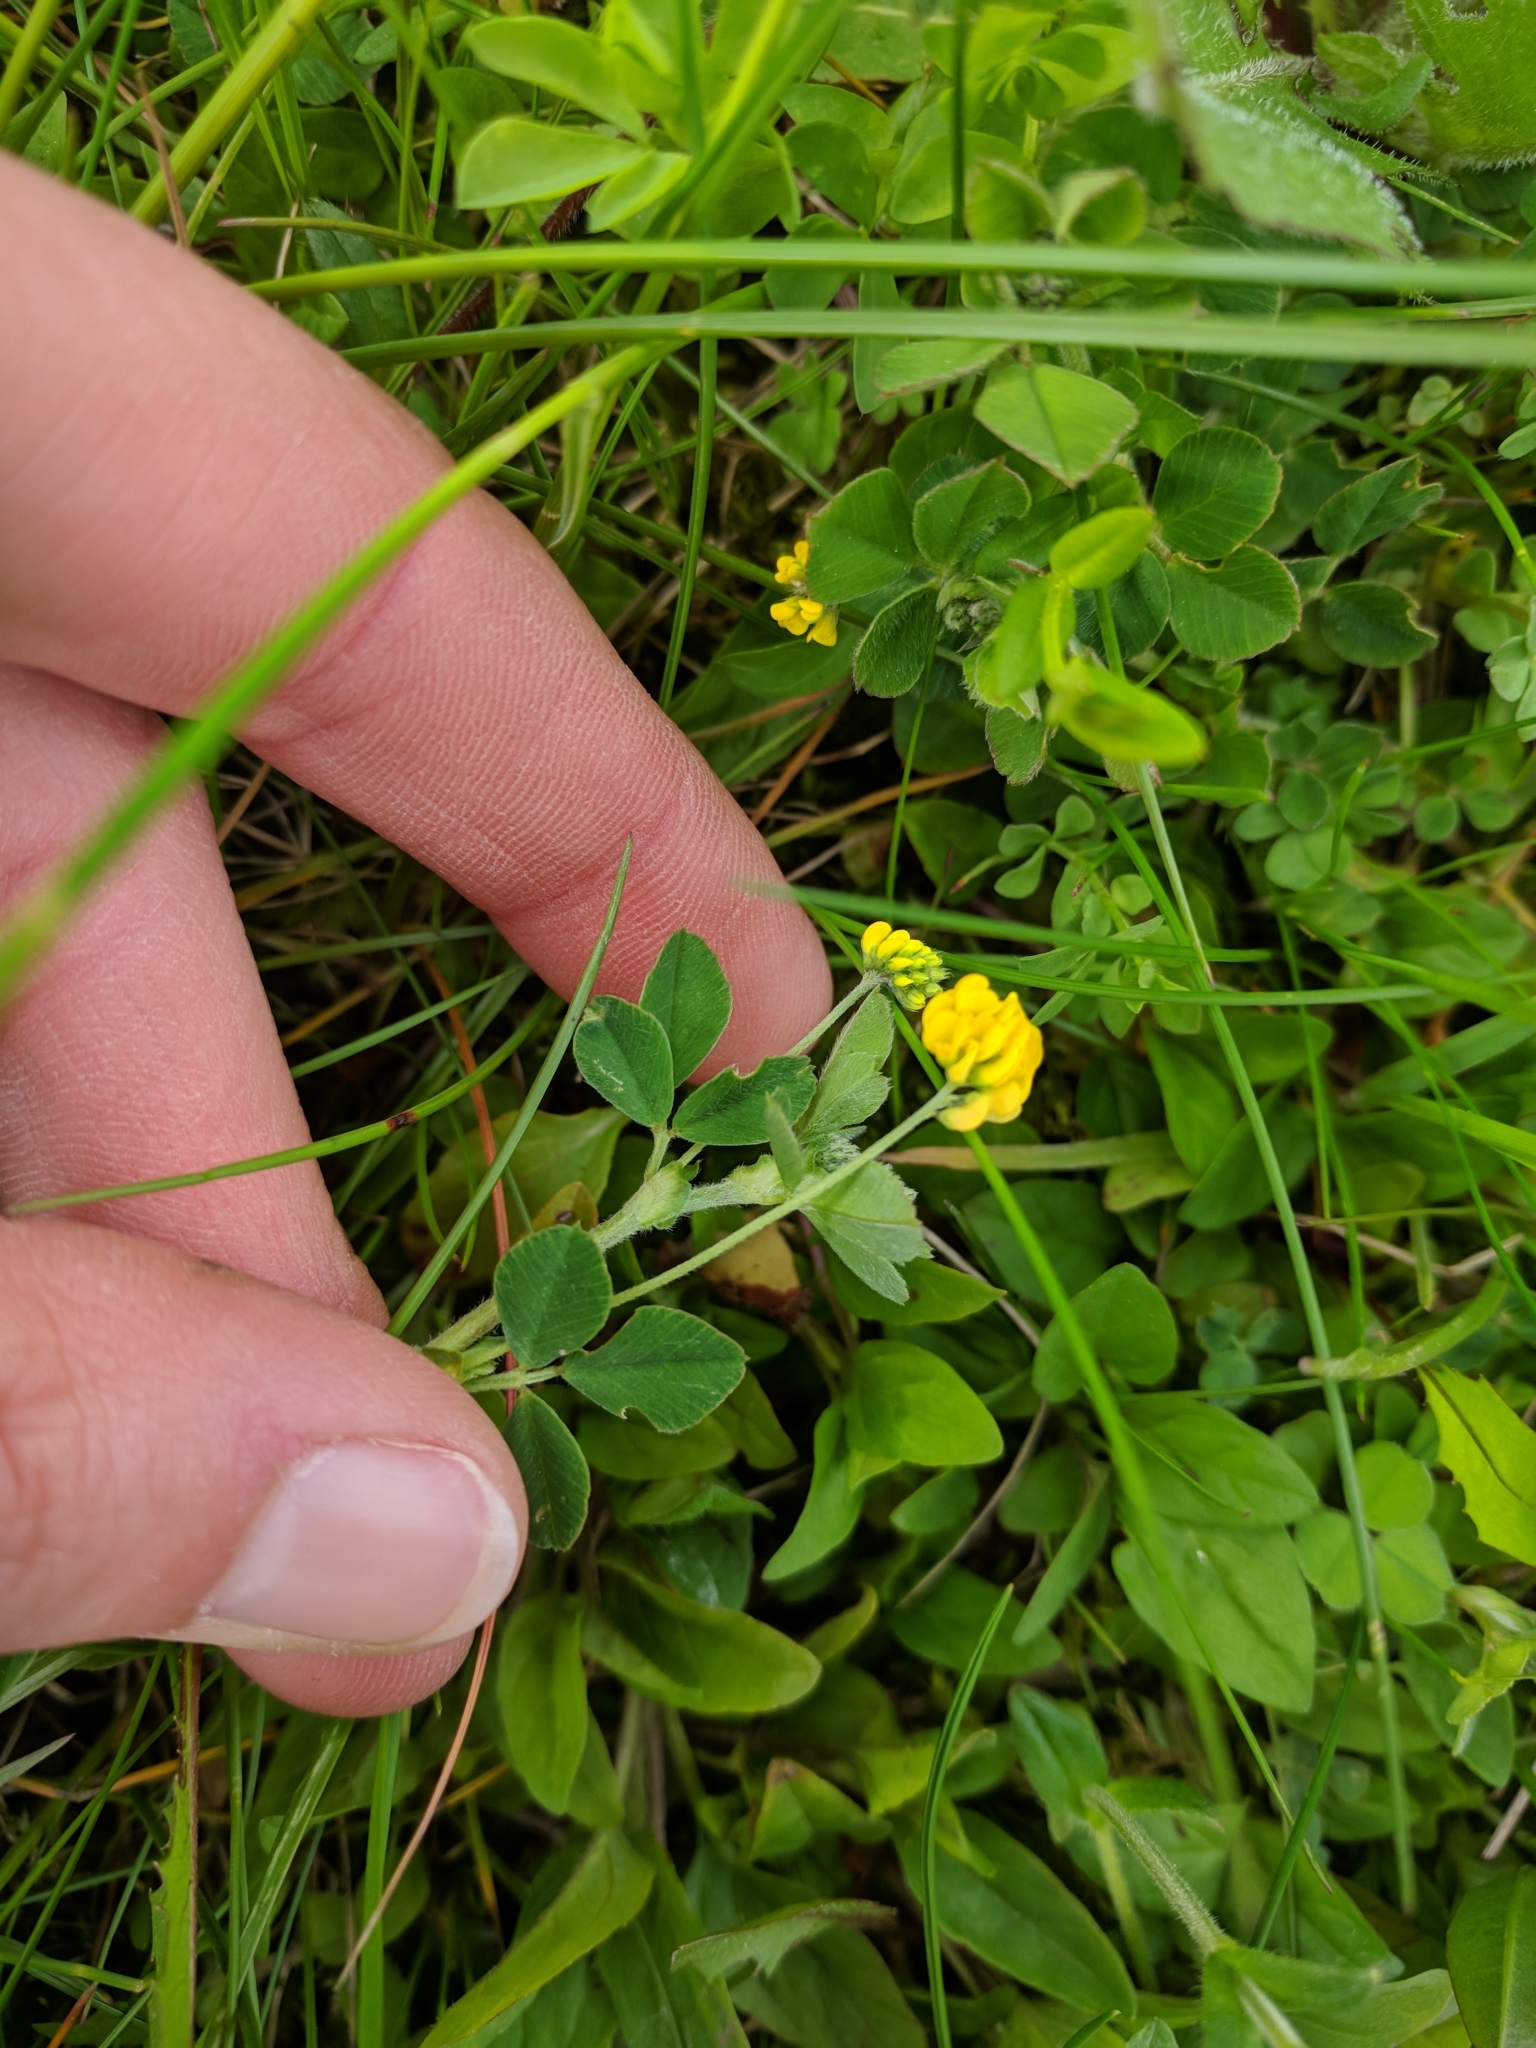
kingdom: Plantae
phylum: Tracheophyta
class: Magnoliopsida
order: Fabales
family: Fabaceae
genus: Medicago
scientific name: Medicago lupulina
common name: Black medick
